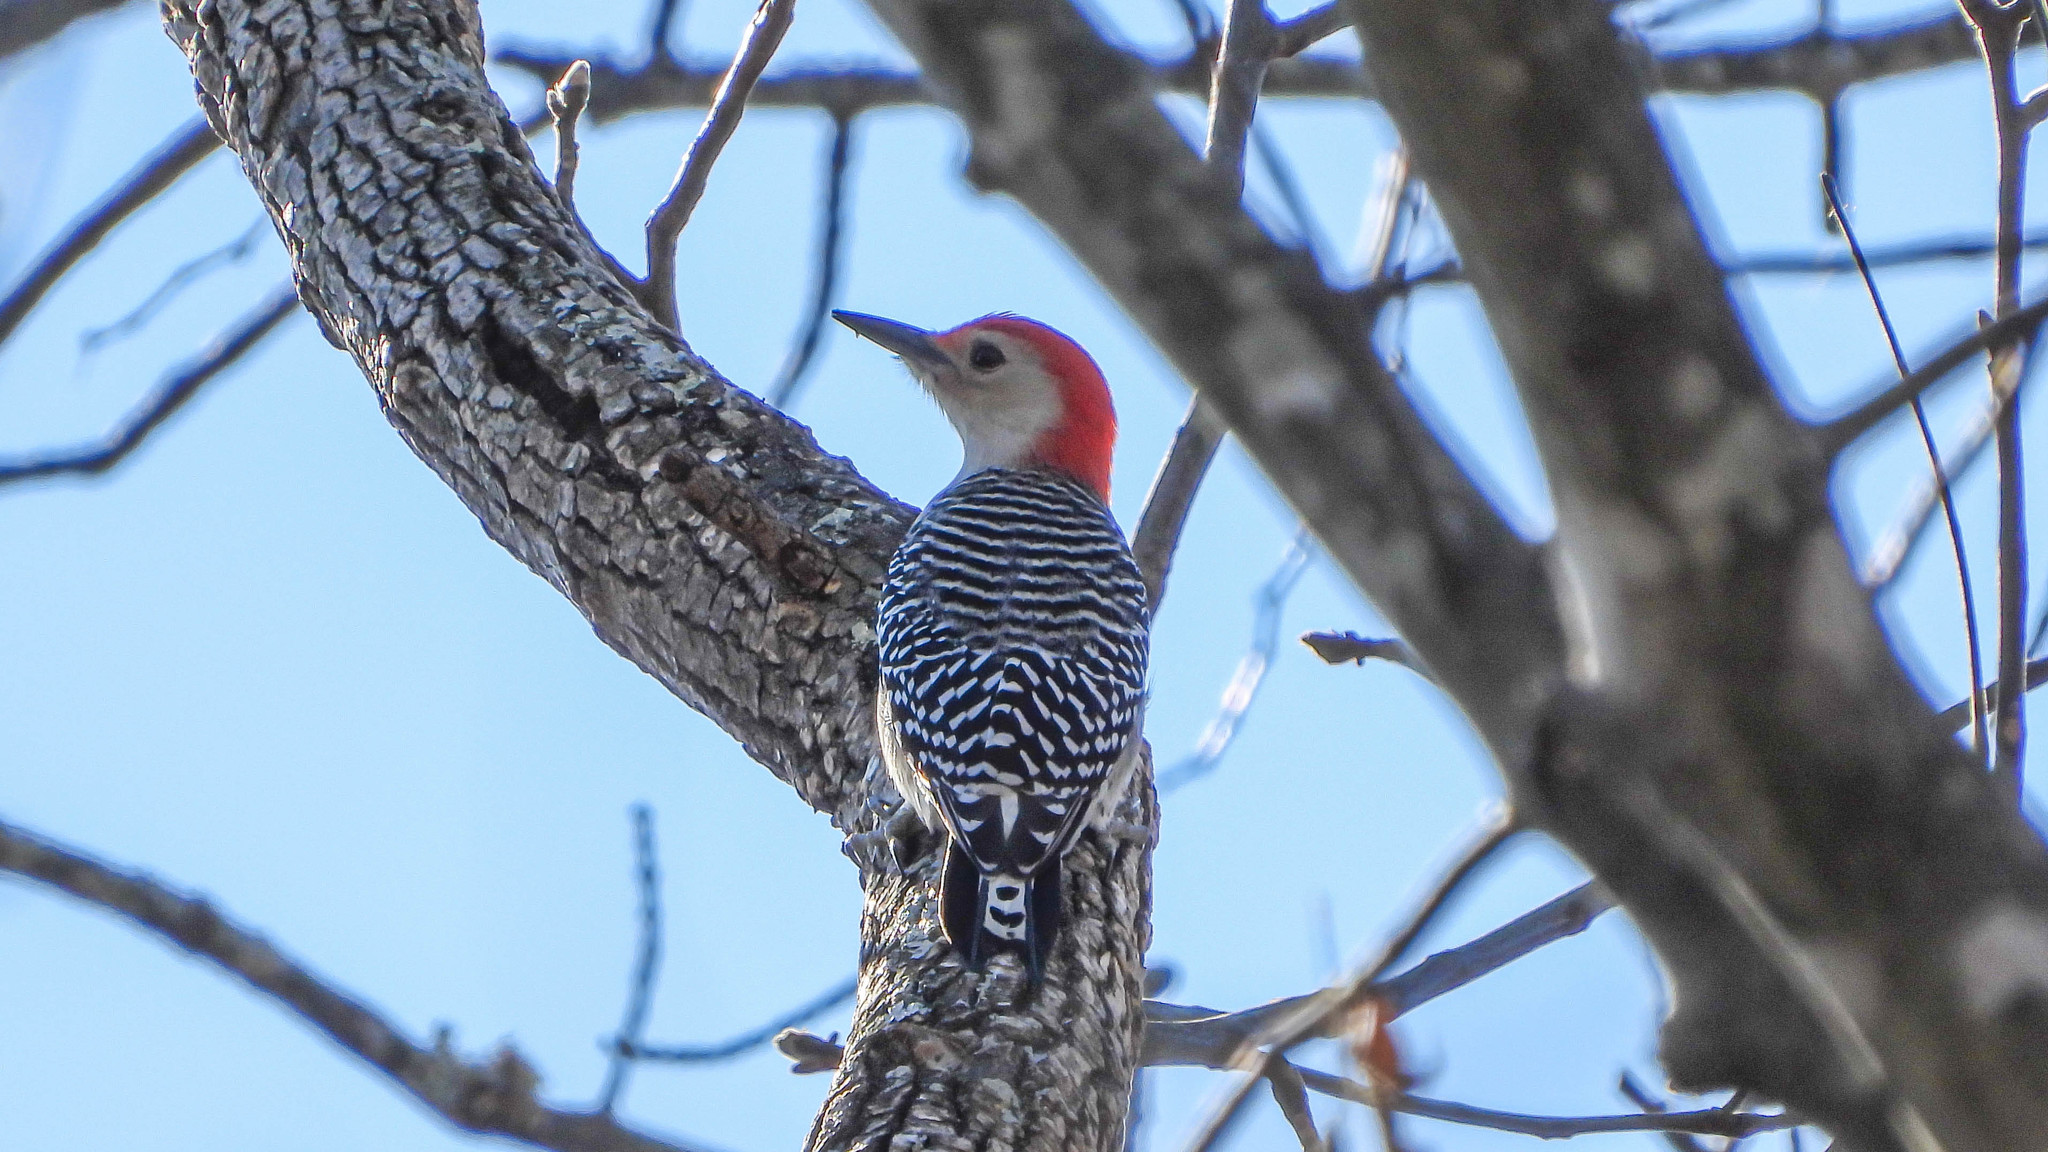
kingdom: Animalia
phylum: Chordata
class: Aves
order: Piciformes
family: Picidae
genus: Melanerpes
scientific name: Melanerpes carolinus
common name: Red-bellied woodpecker
